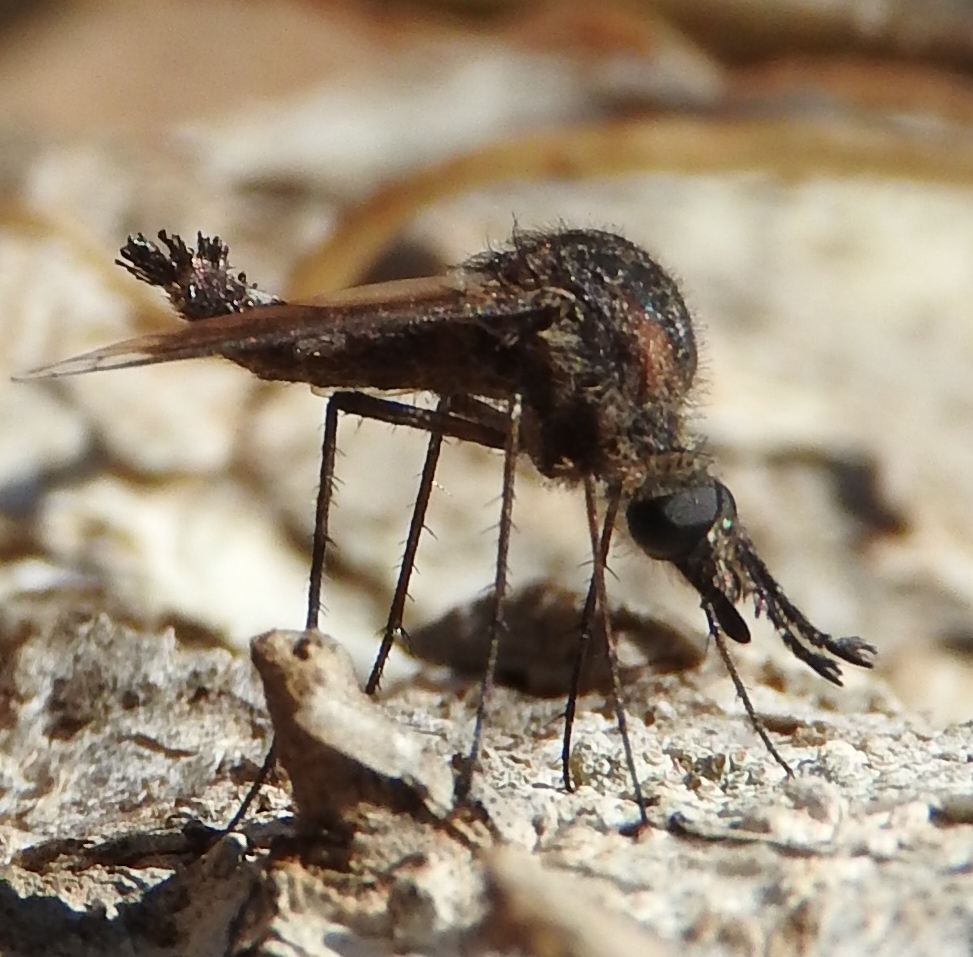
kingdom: Animalia
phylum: Arthropoda
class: Insecta
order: Diptera
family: Bombyliidae
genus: Lepidophora
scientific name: Lepidophora
